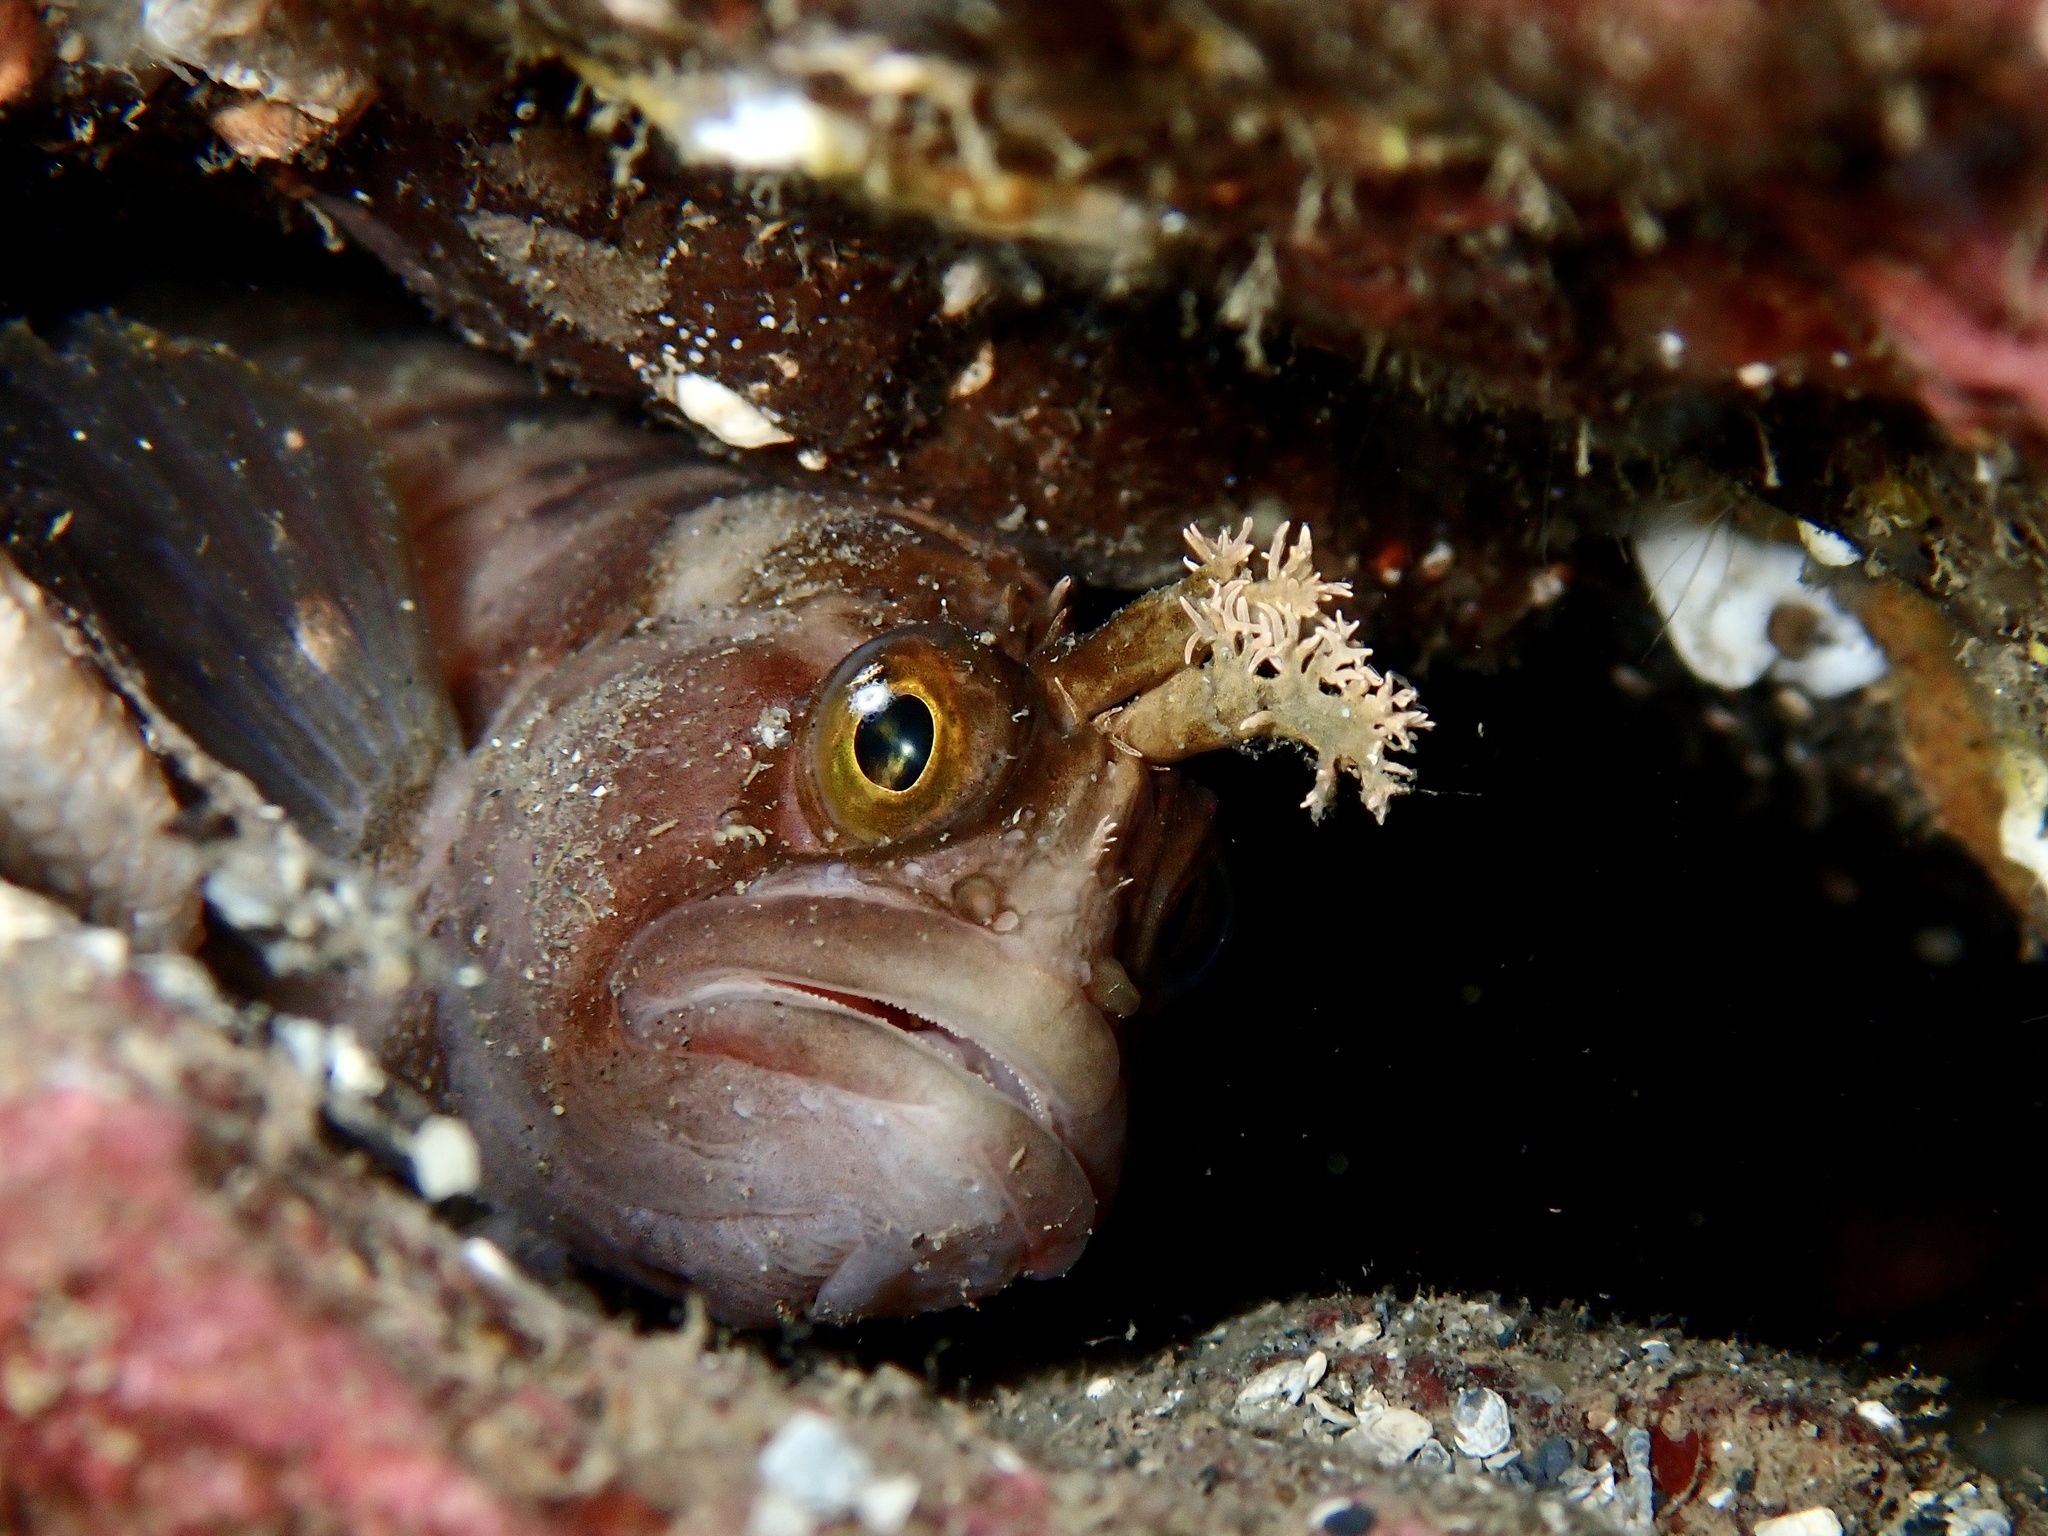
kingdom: Animalia
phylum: Chordata
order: Perciformes
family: Stichaeidae
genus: Chirolophis
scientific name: Chirolophis ascanii
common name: Yarrell's blenny
